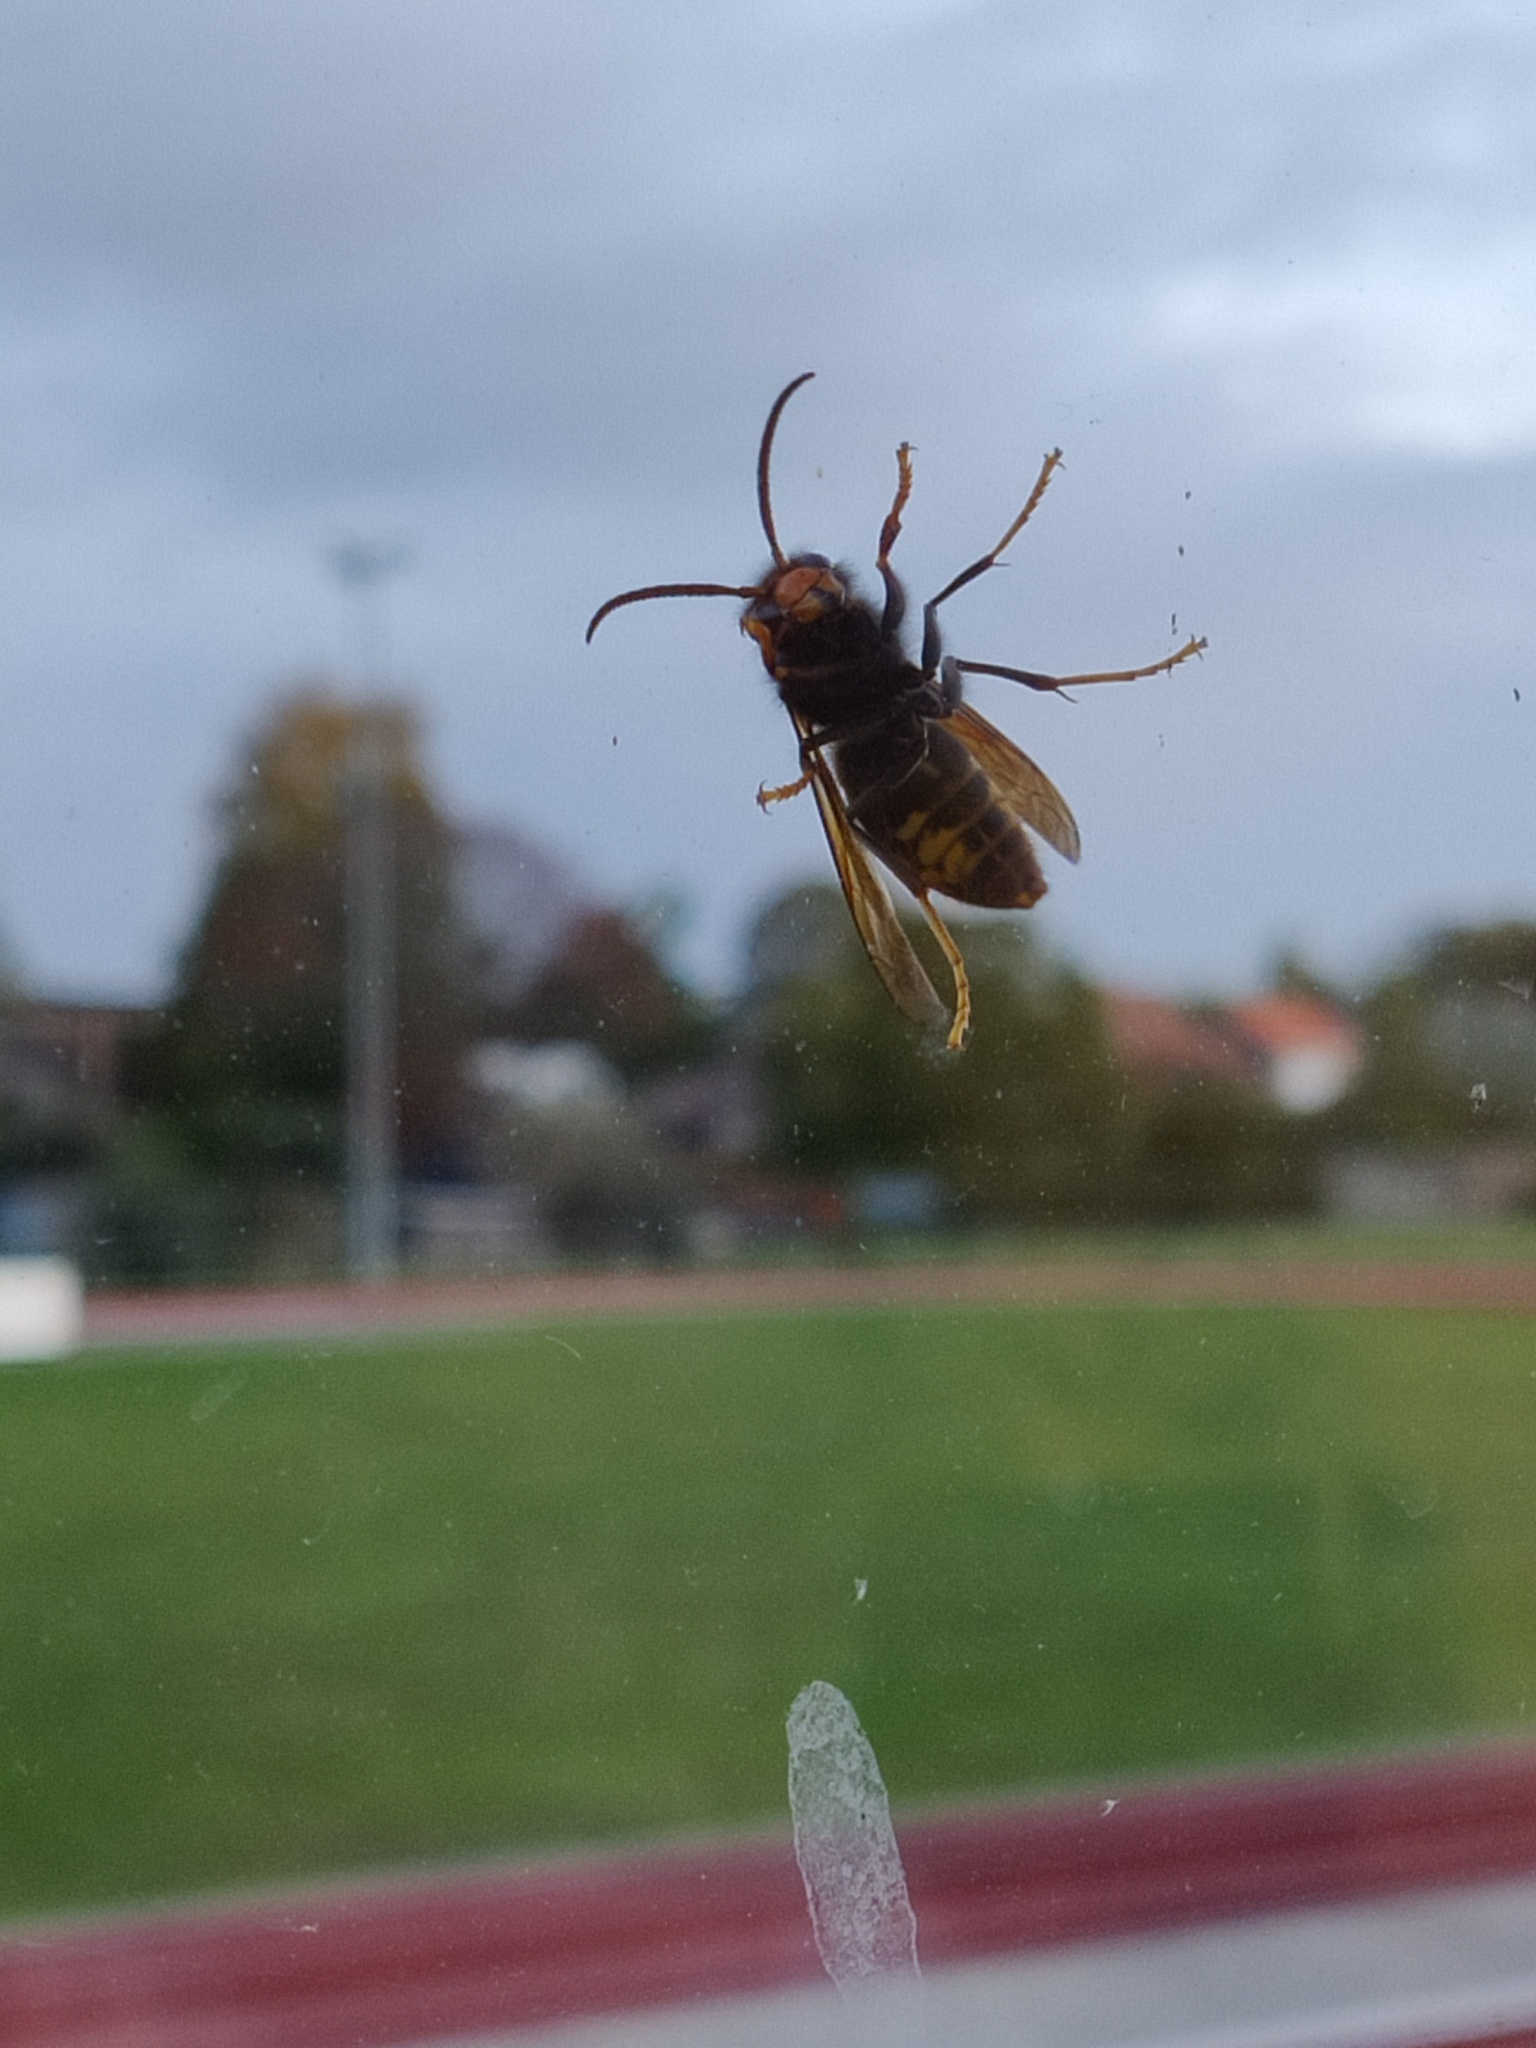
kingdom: Animalia
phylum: Arthropoda
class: Insecta
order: Hymenoptera
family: Vespidae
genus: Vespa
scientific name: Vespa velutina
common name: Asian hornet
